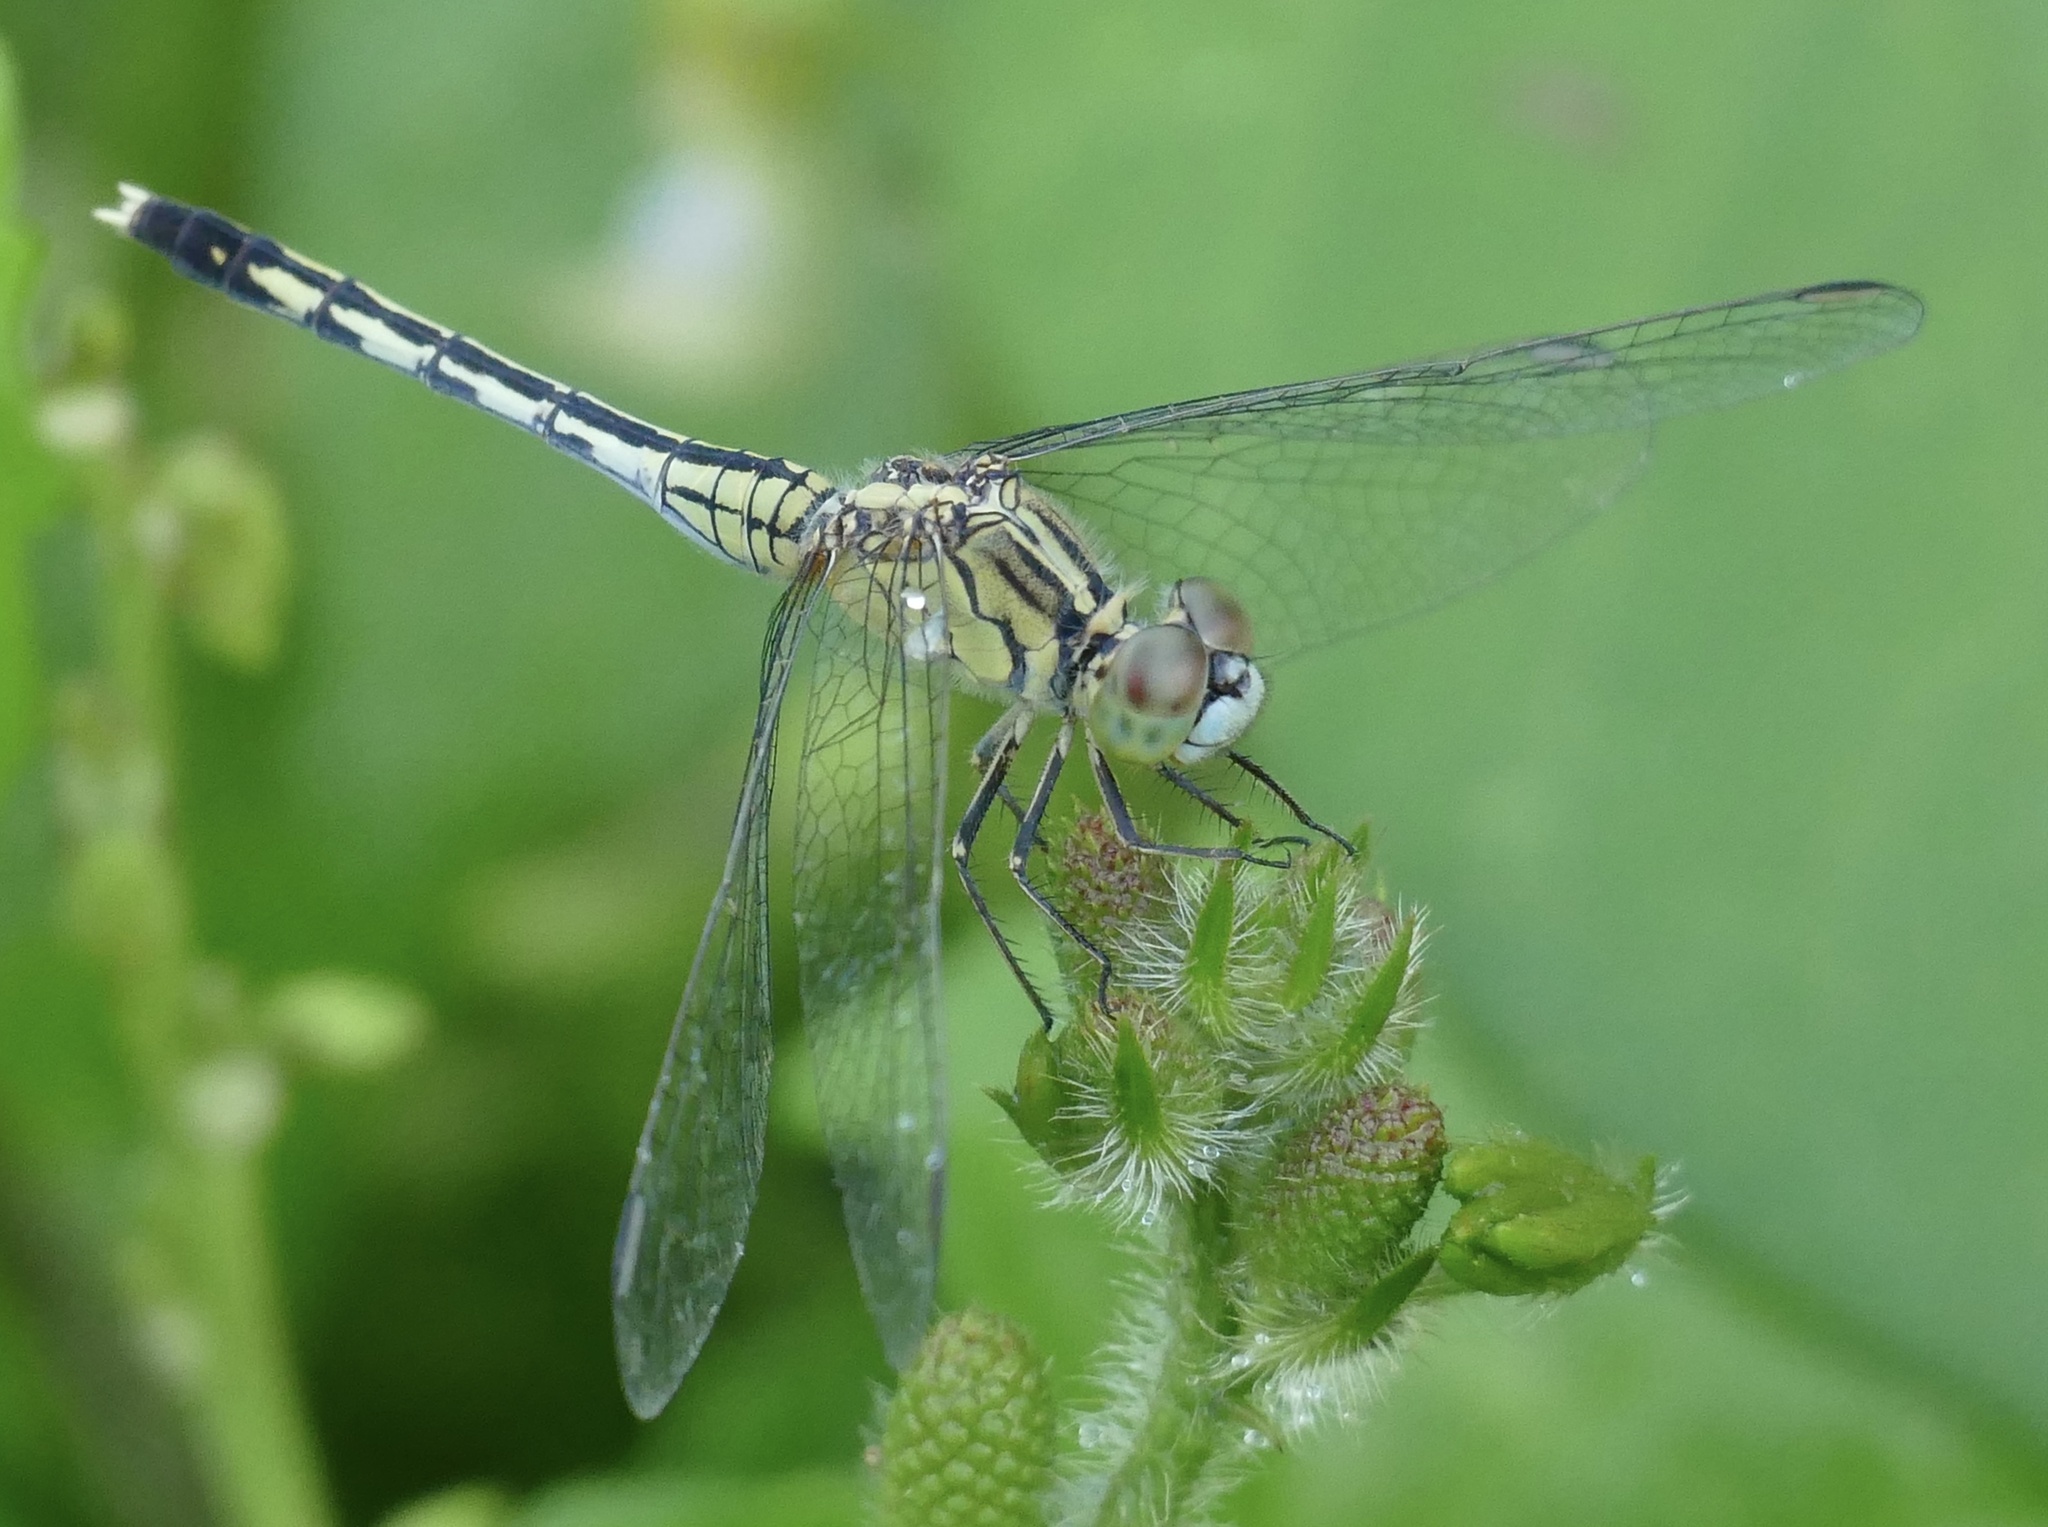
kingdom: Animalia
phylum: Arthropoda
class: Insecta
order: Odonata
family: Libellulidae
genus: Diplacodes
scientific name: Diplacodes trivialis
